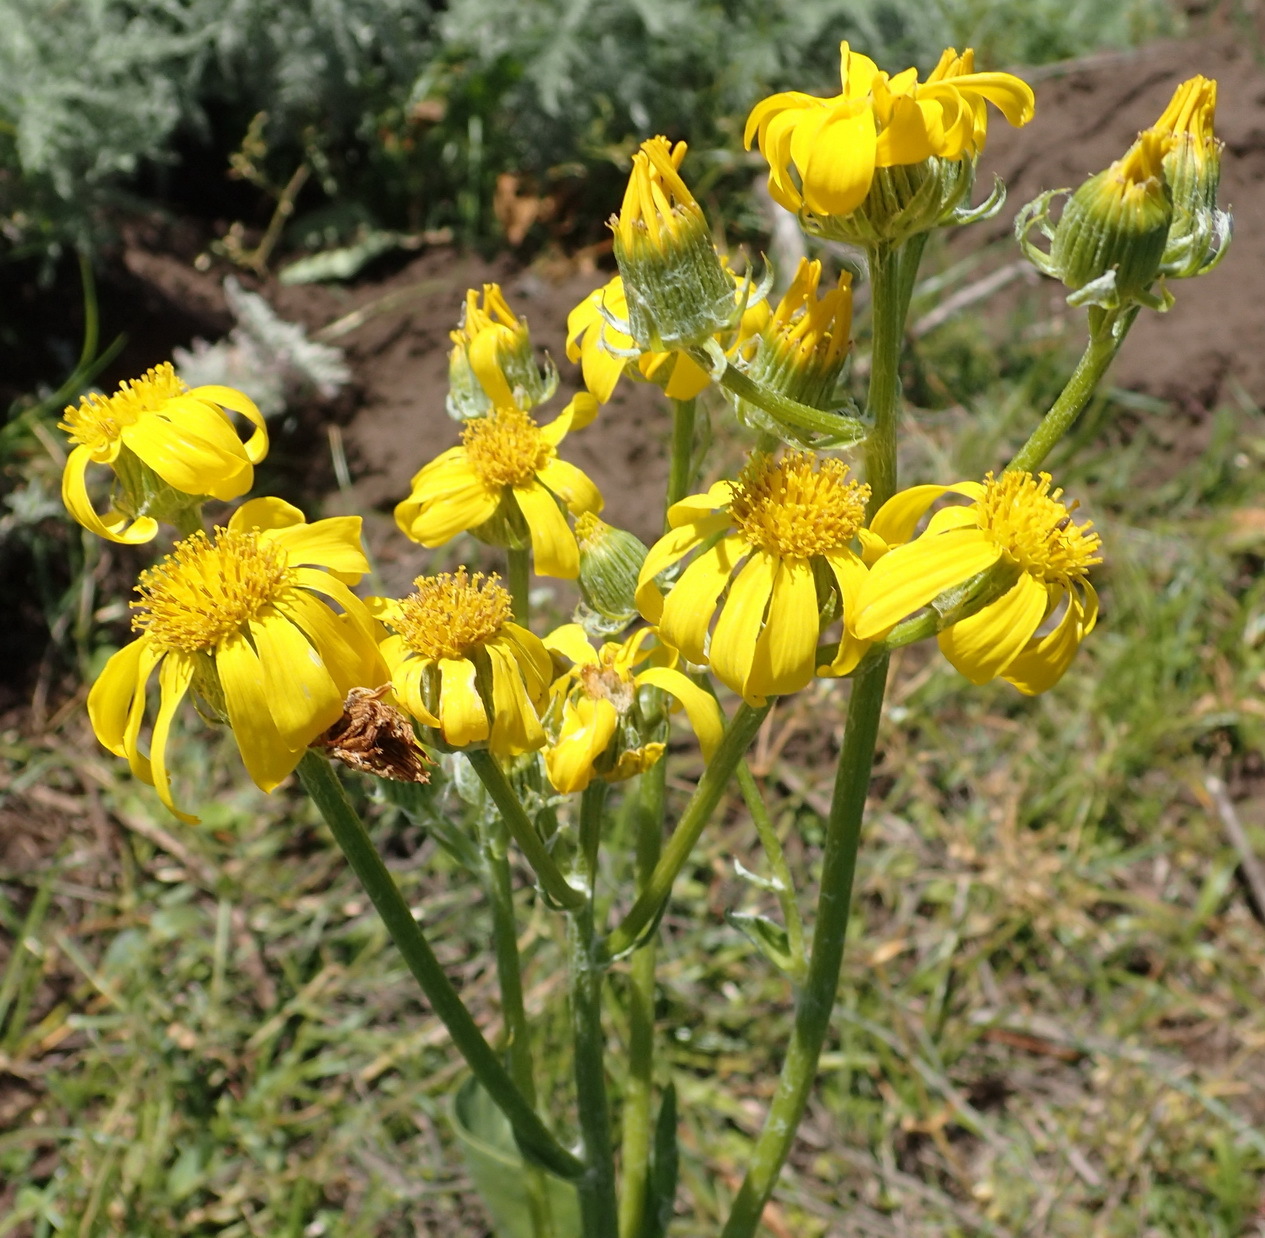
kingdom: Plantae
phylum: Tracheophyta
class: Magnoliopsida
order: Asterales
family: Asteraceae
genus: Senecio
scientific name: Senecio coronatus
